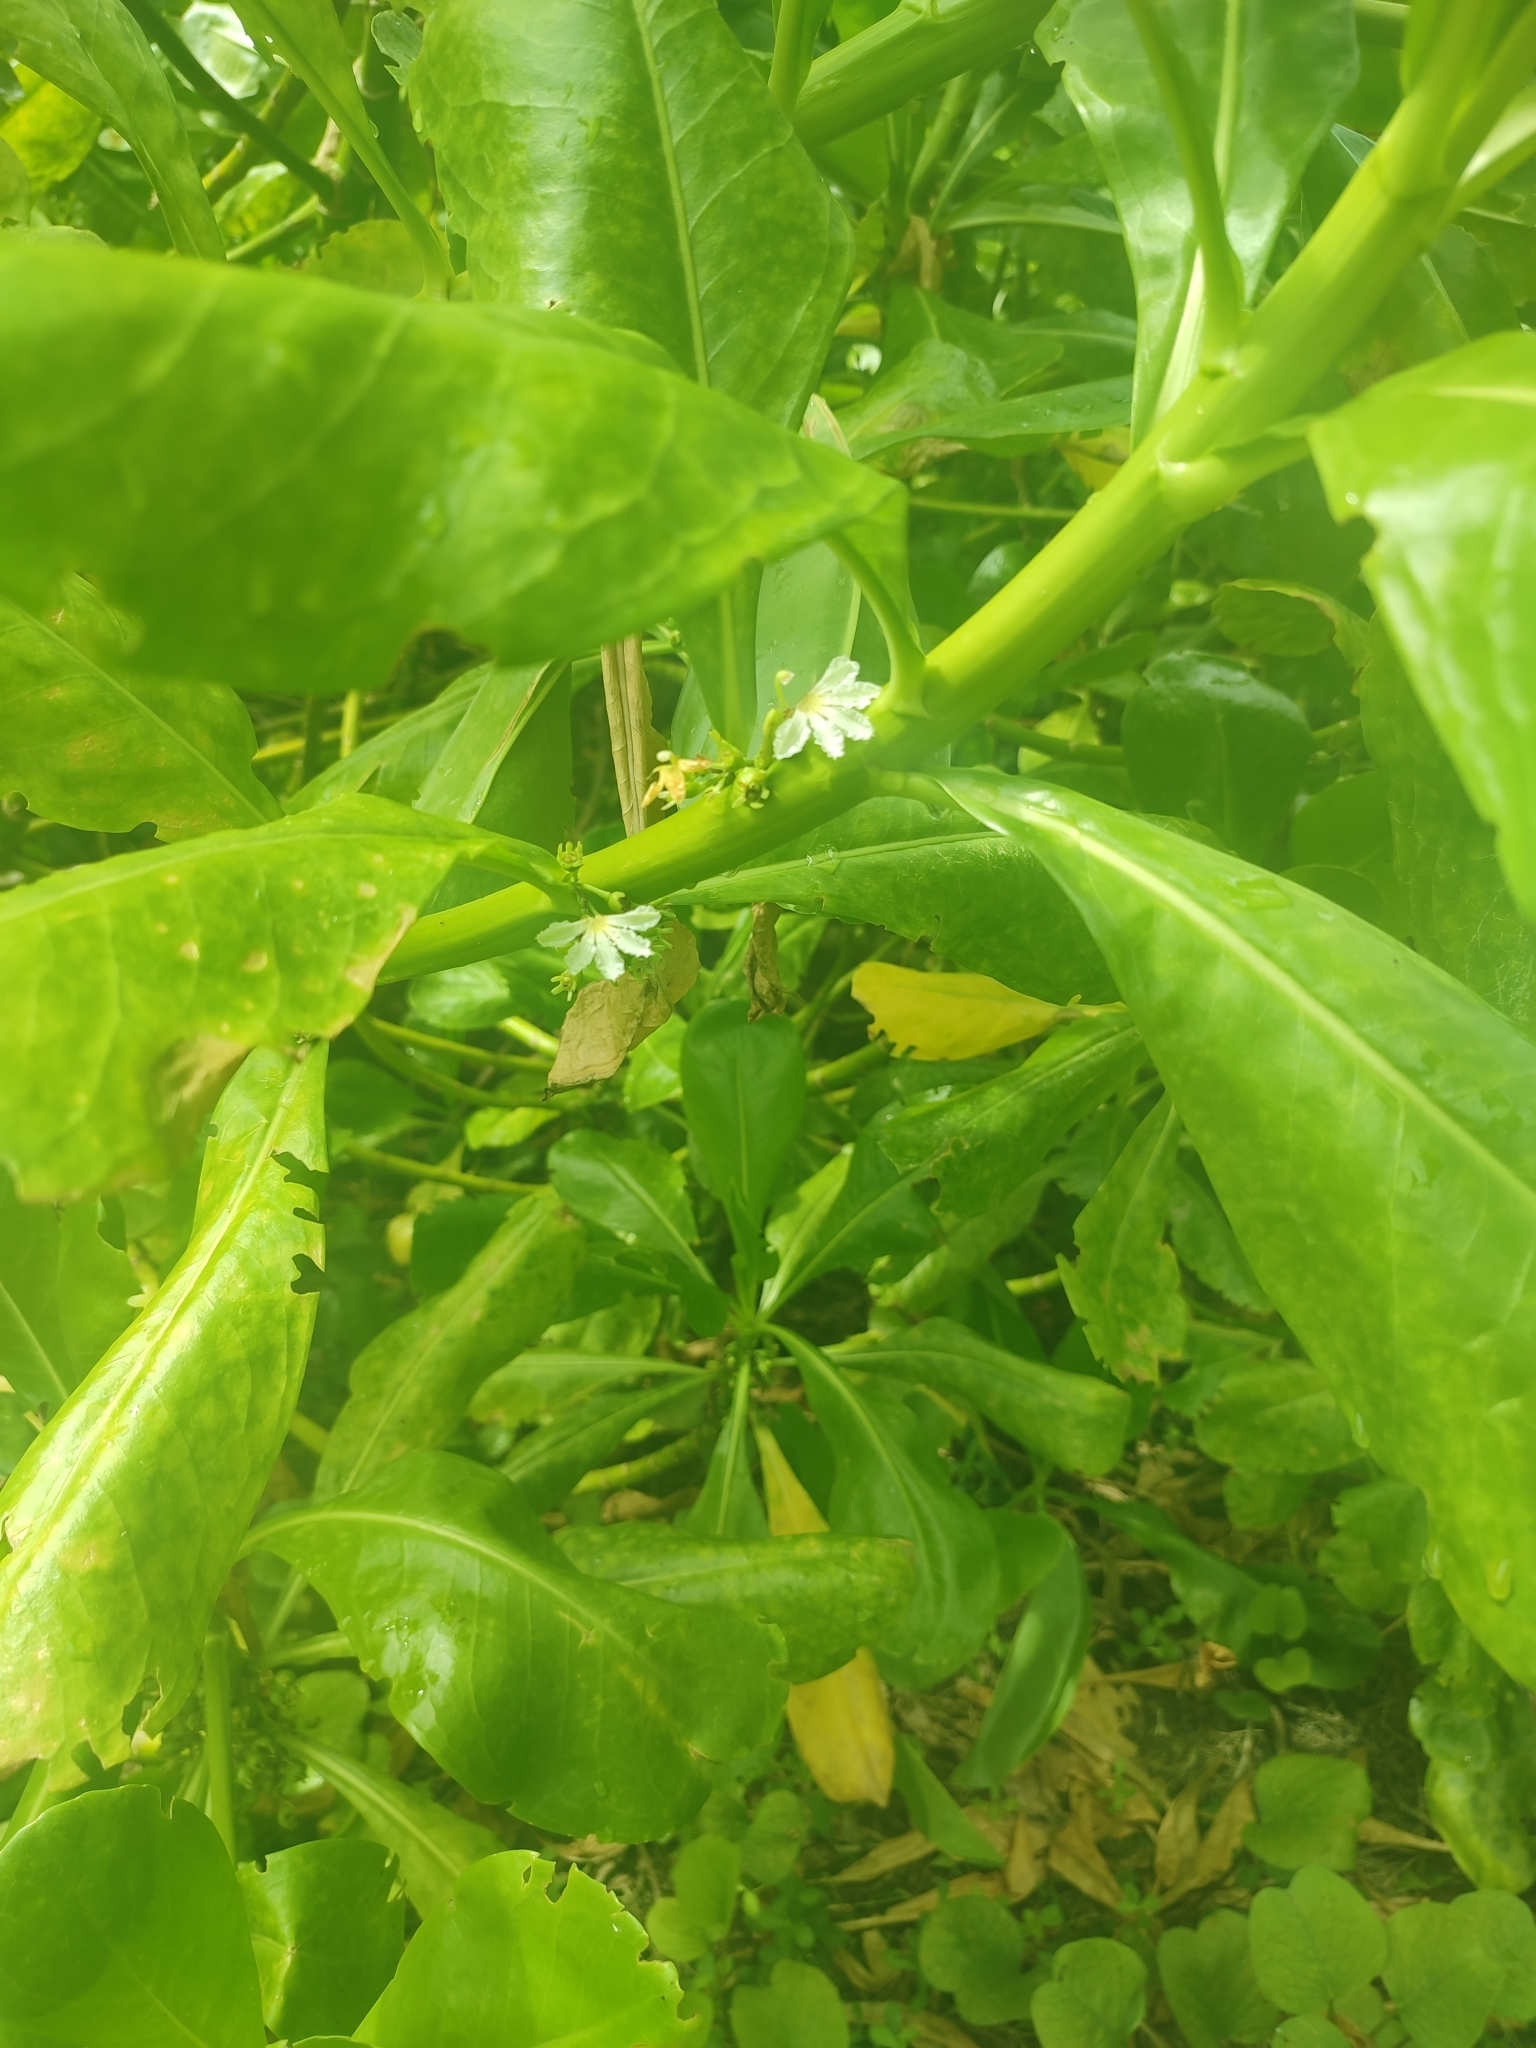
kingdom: Plantae
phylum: Tracheophyta
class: Magnoliopsida
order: Asterales
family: Goodeniaceae
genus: Scaevola
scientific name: Scaevola taccada
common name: Sea lettucetree
